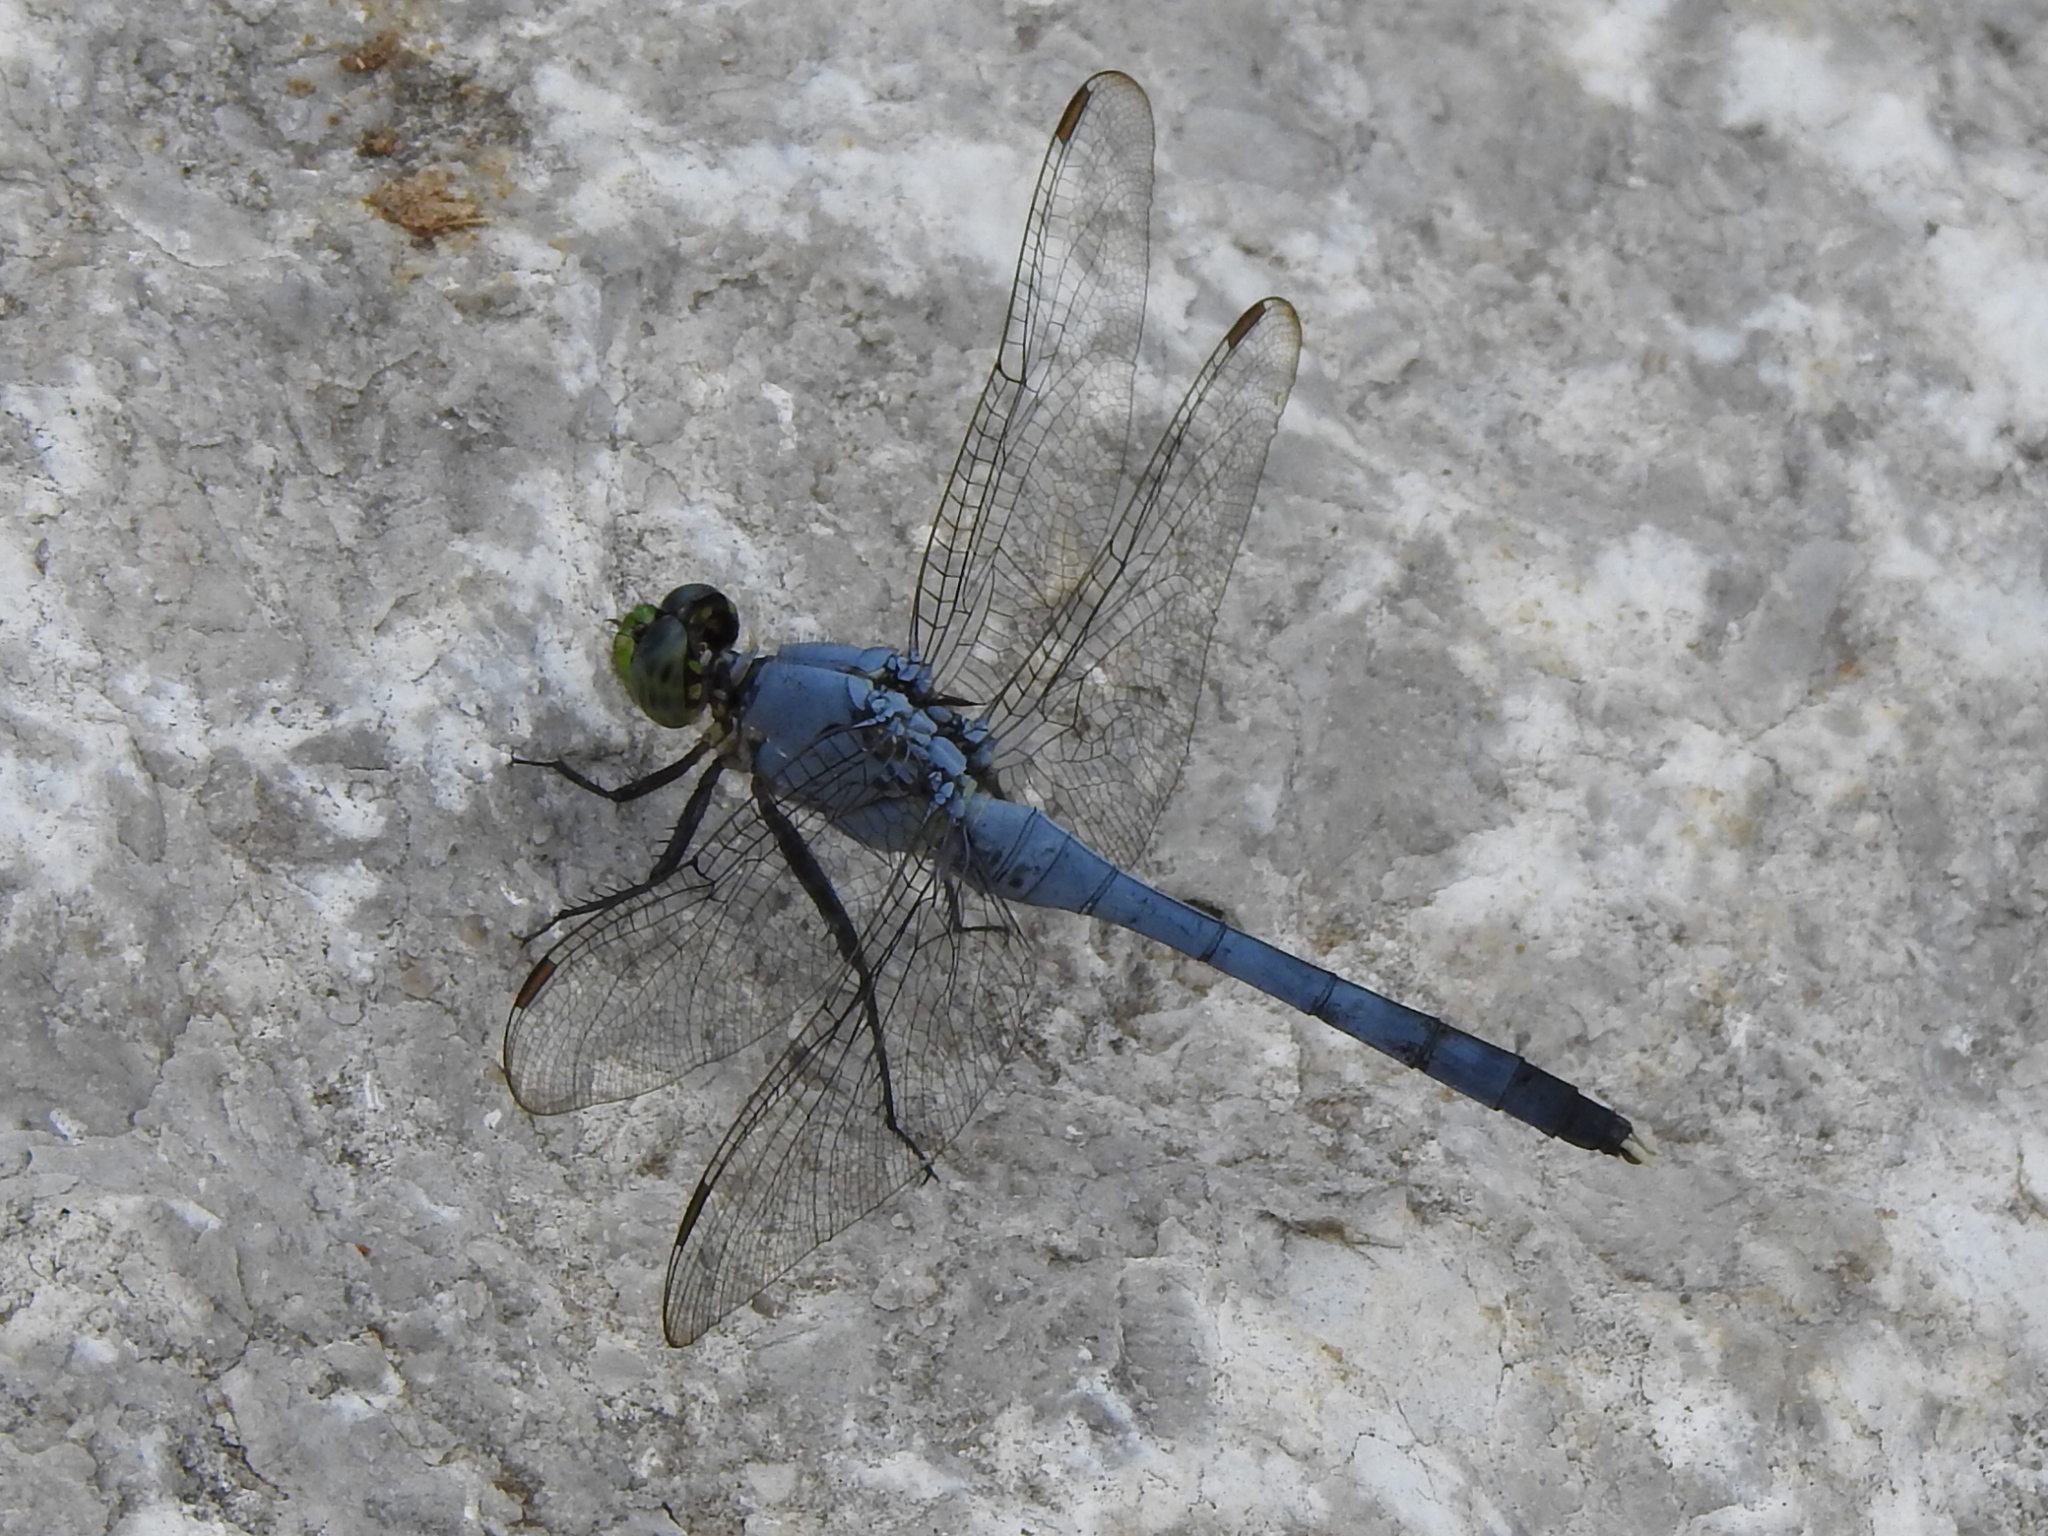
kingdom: Animalia
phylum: Arthropoda
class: Insecta
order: Odonata
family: Libellulidae
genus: Erythemis
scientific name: Erythemis simplicicollis
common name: Eastern pondhawk
